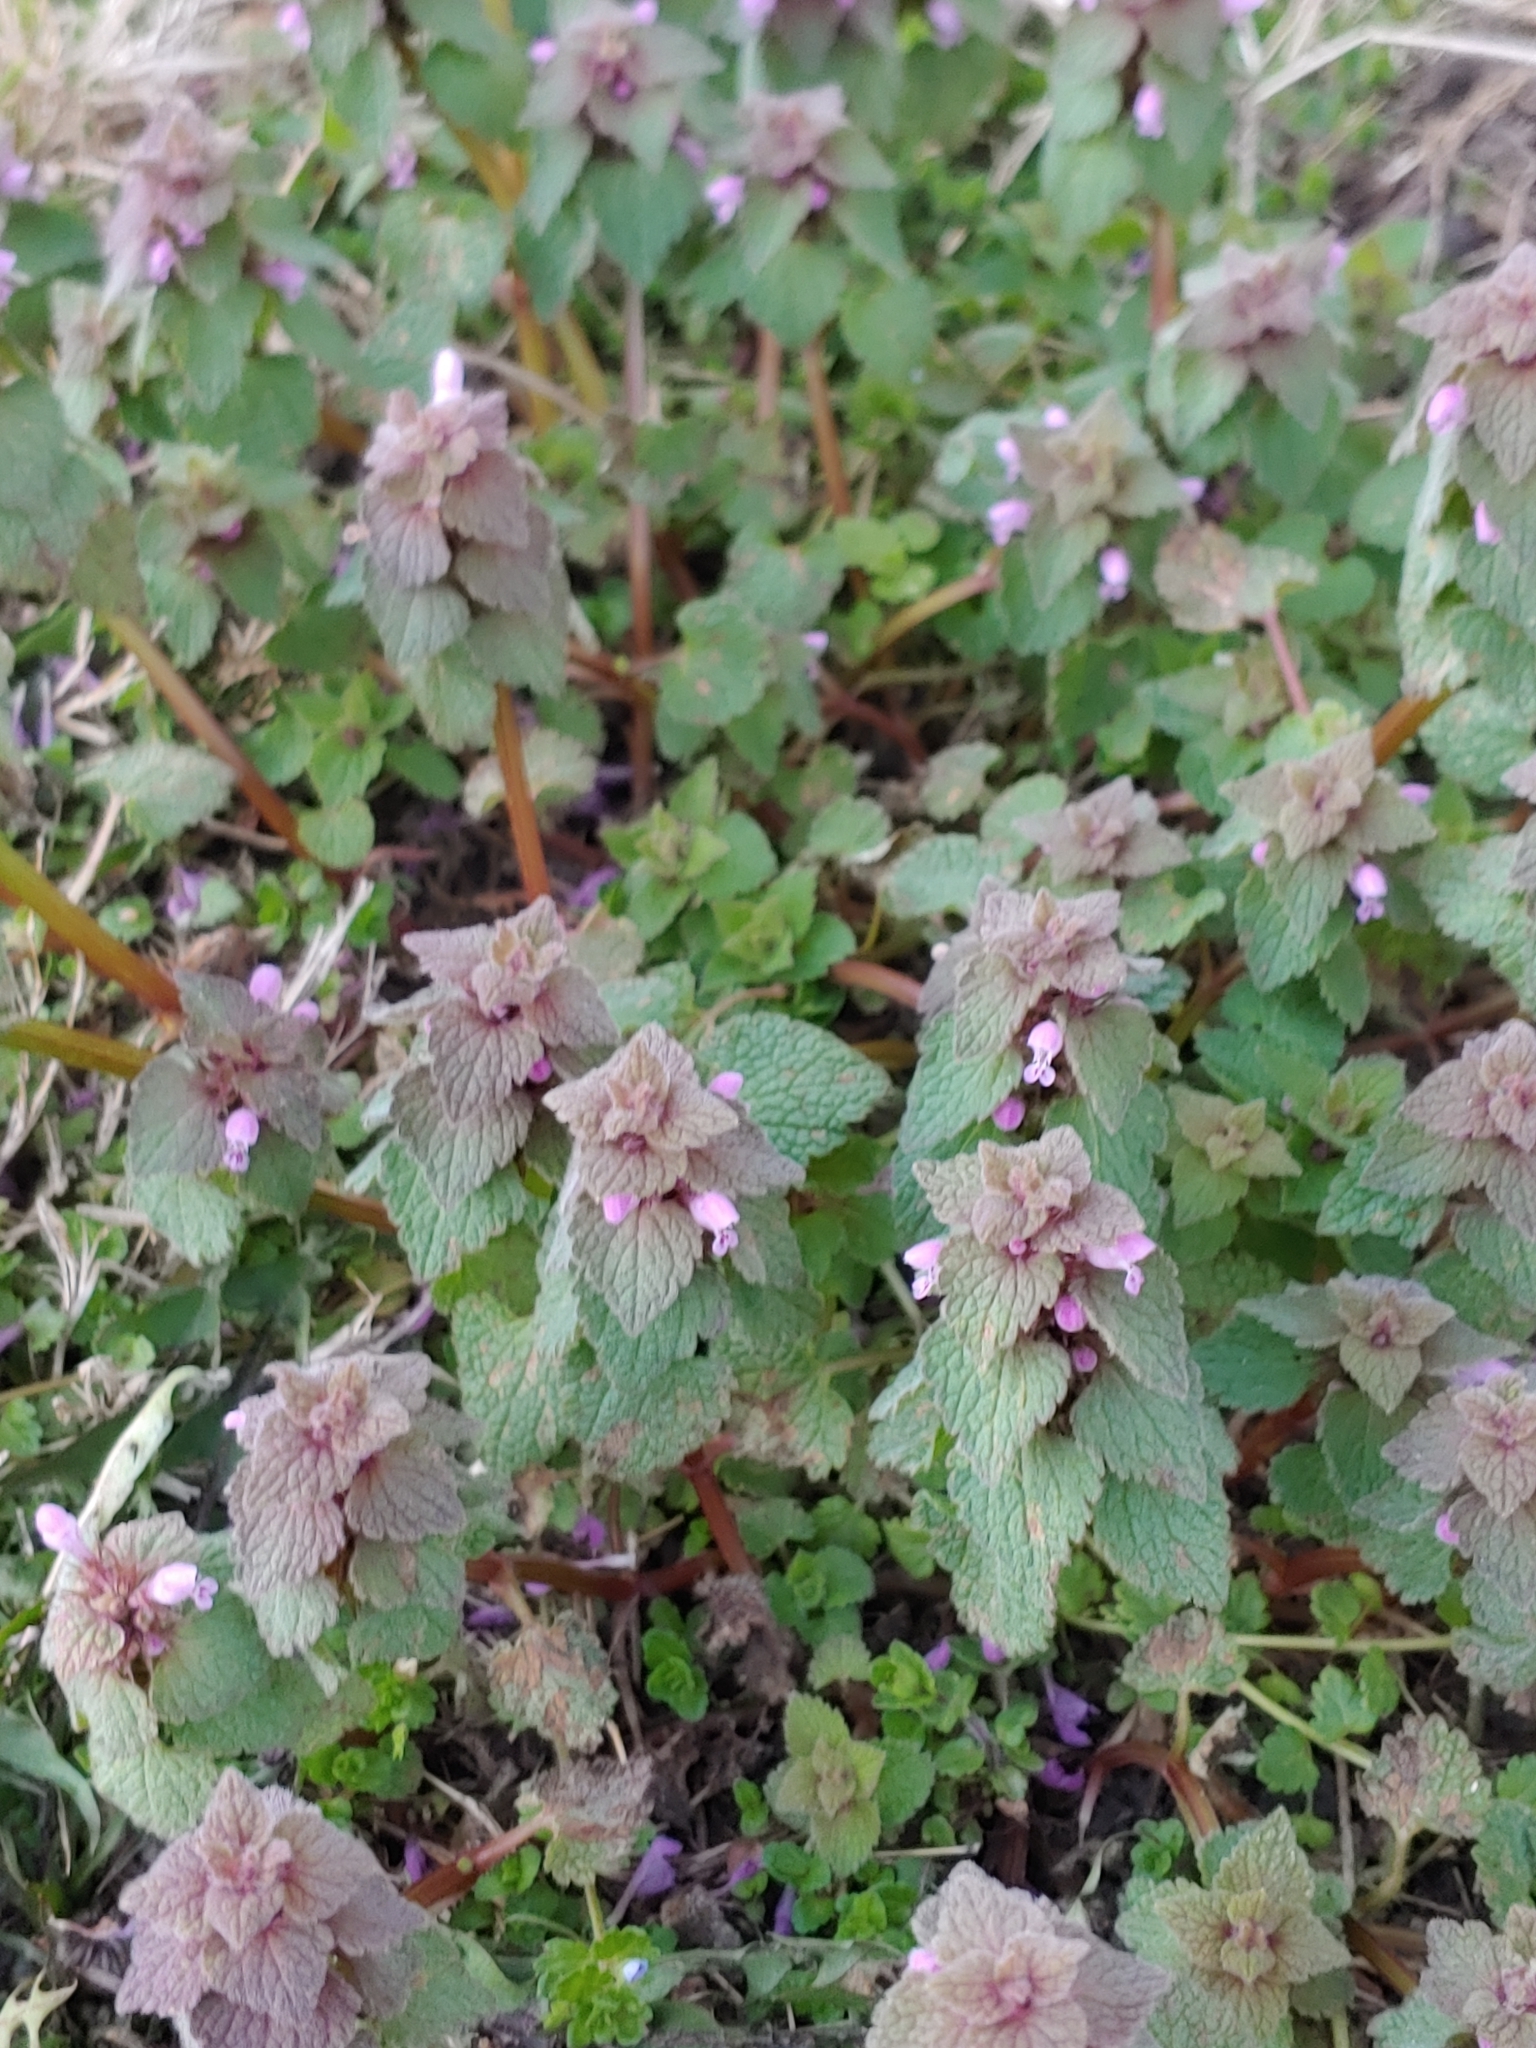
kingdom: Plantae
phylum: Tracheophyta
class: Magnoliopsida
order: Lamiales
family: Lamiaceae
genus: Lamium
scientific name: Lamium purpureum
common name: Red dead-nettle
